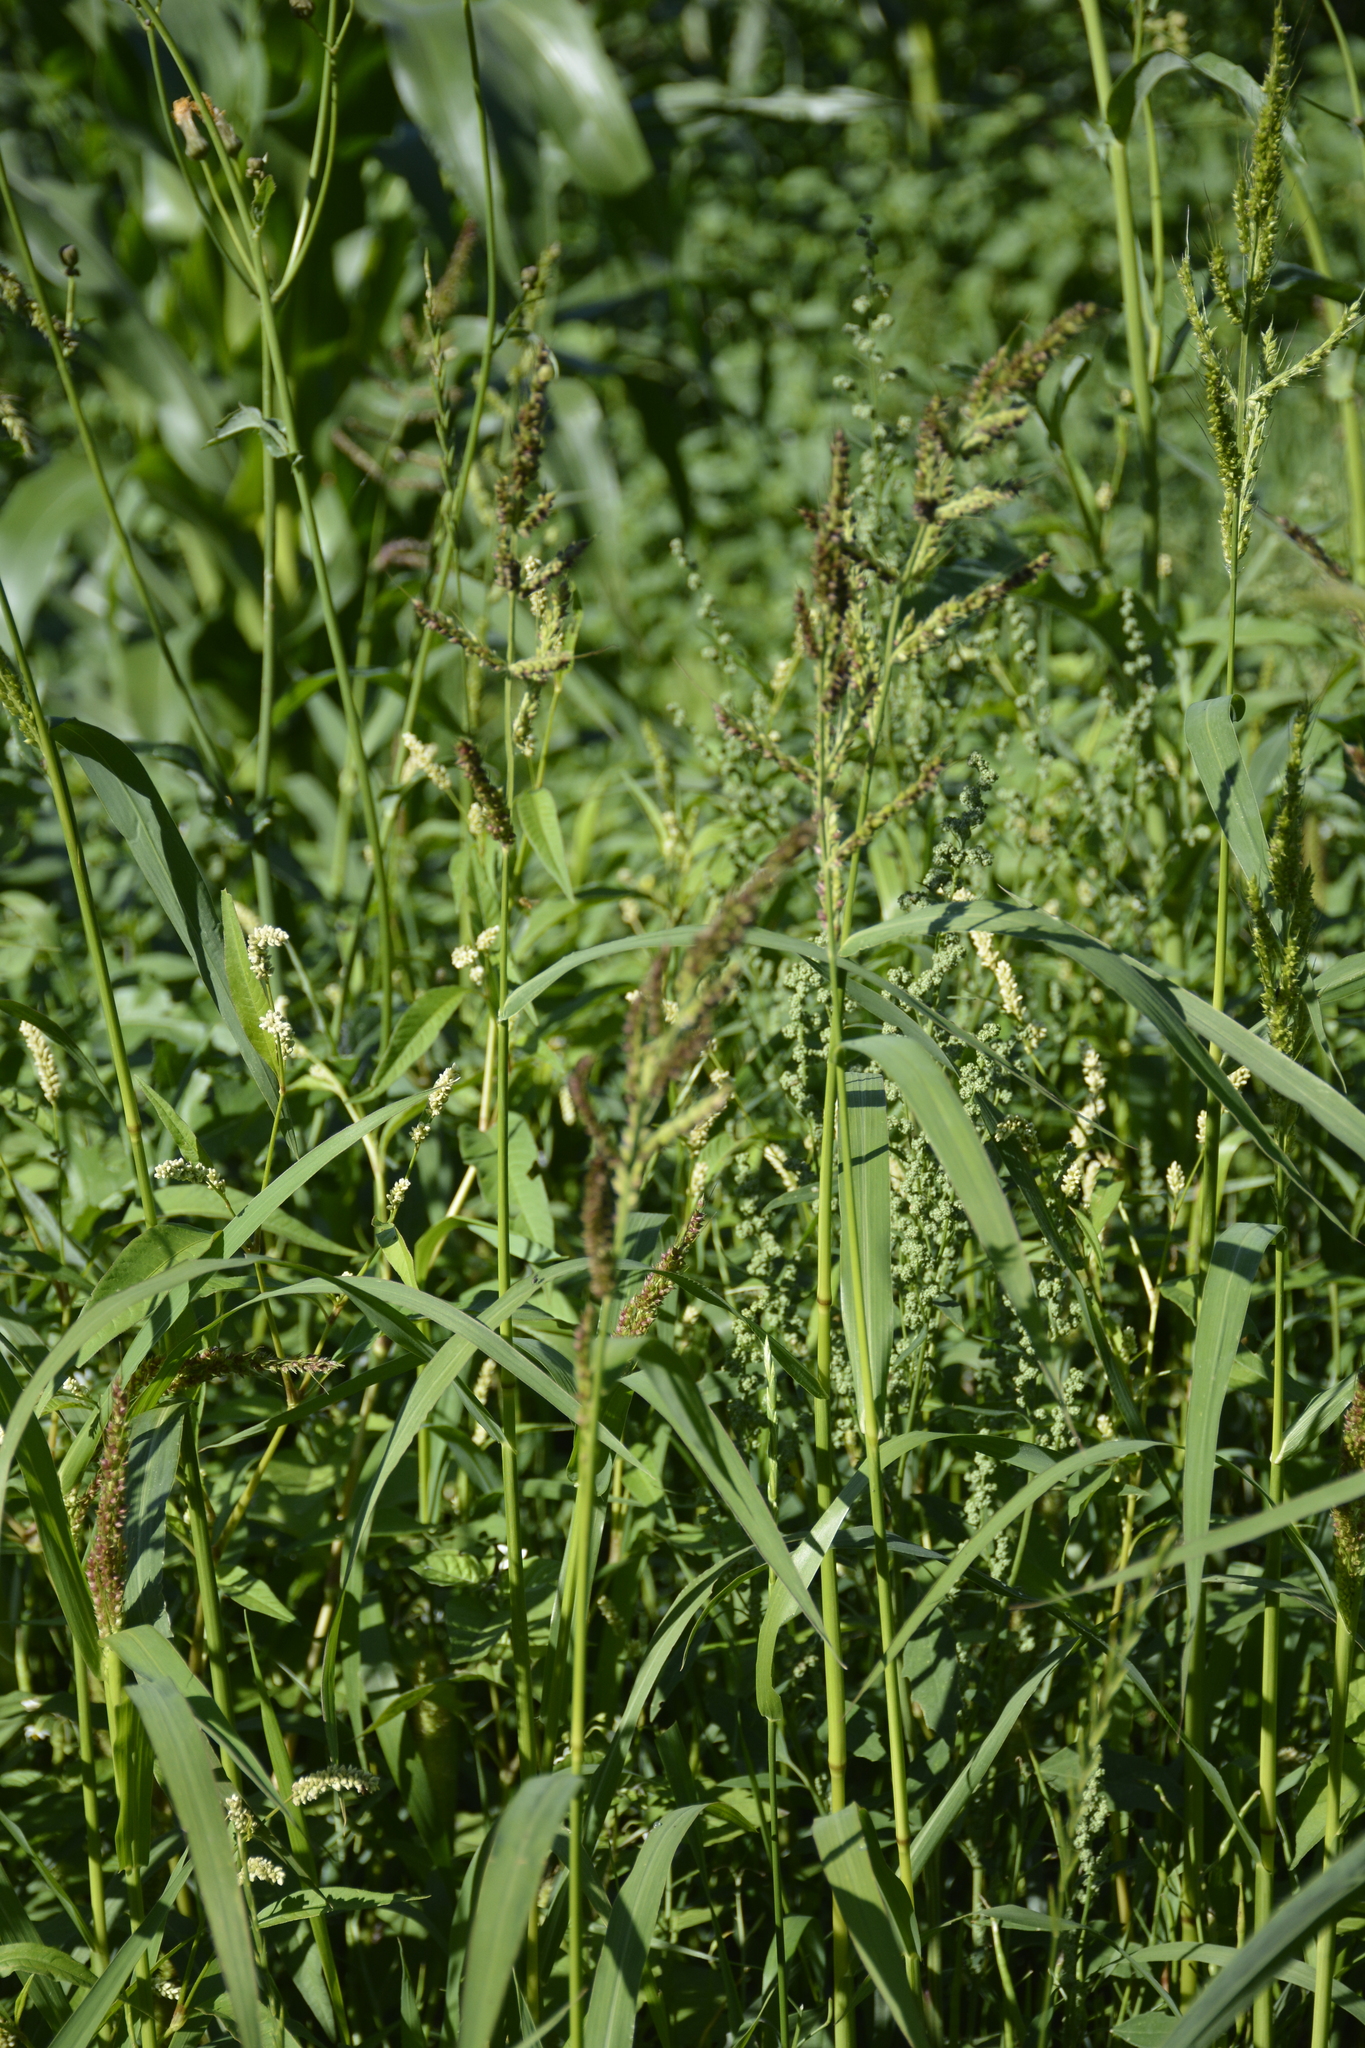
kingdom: Plantae
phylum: Tracheophyta
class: Liliopsida
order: Poales
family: Poaceae
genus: Echinochloa
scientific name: Echinochloa crus-galli
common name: Cockspur
